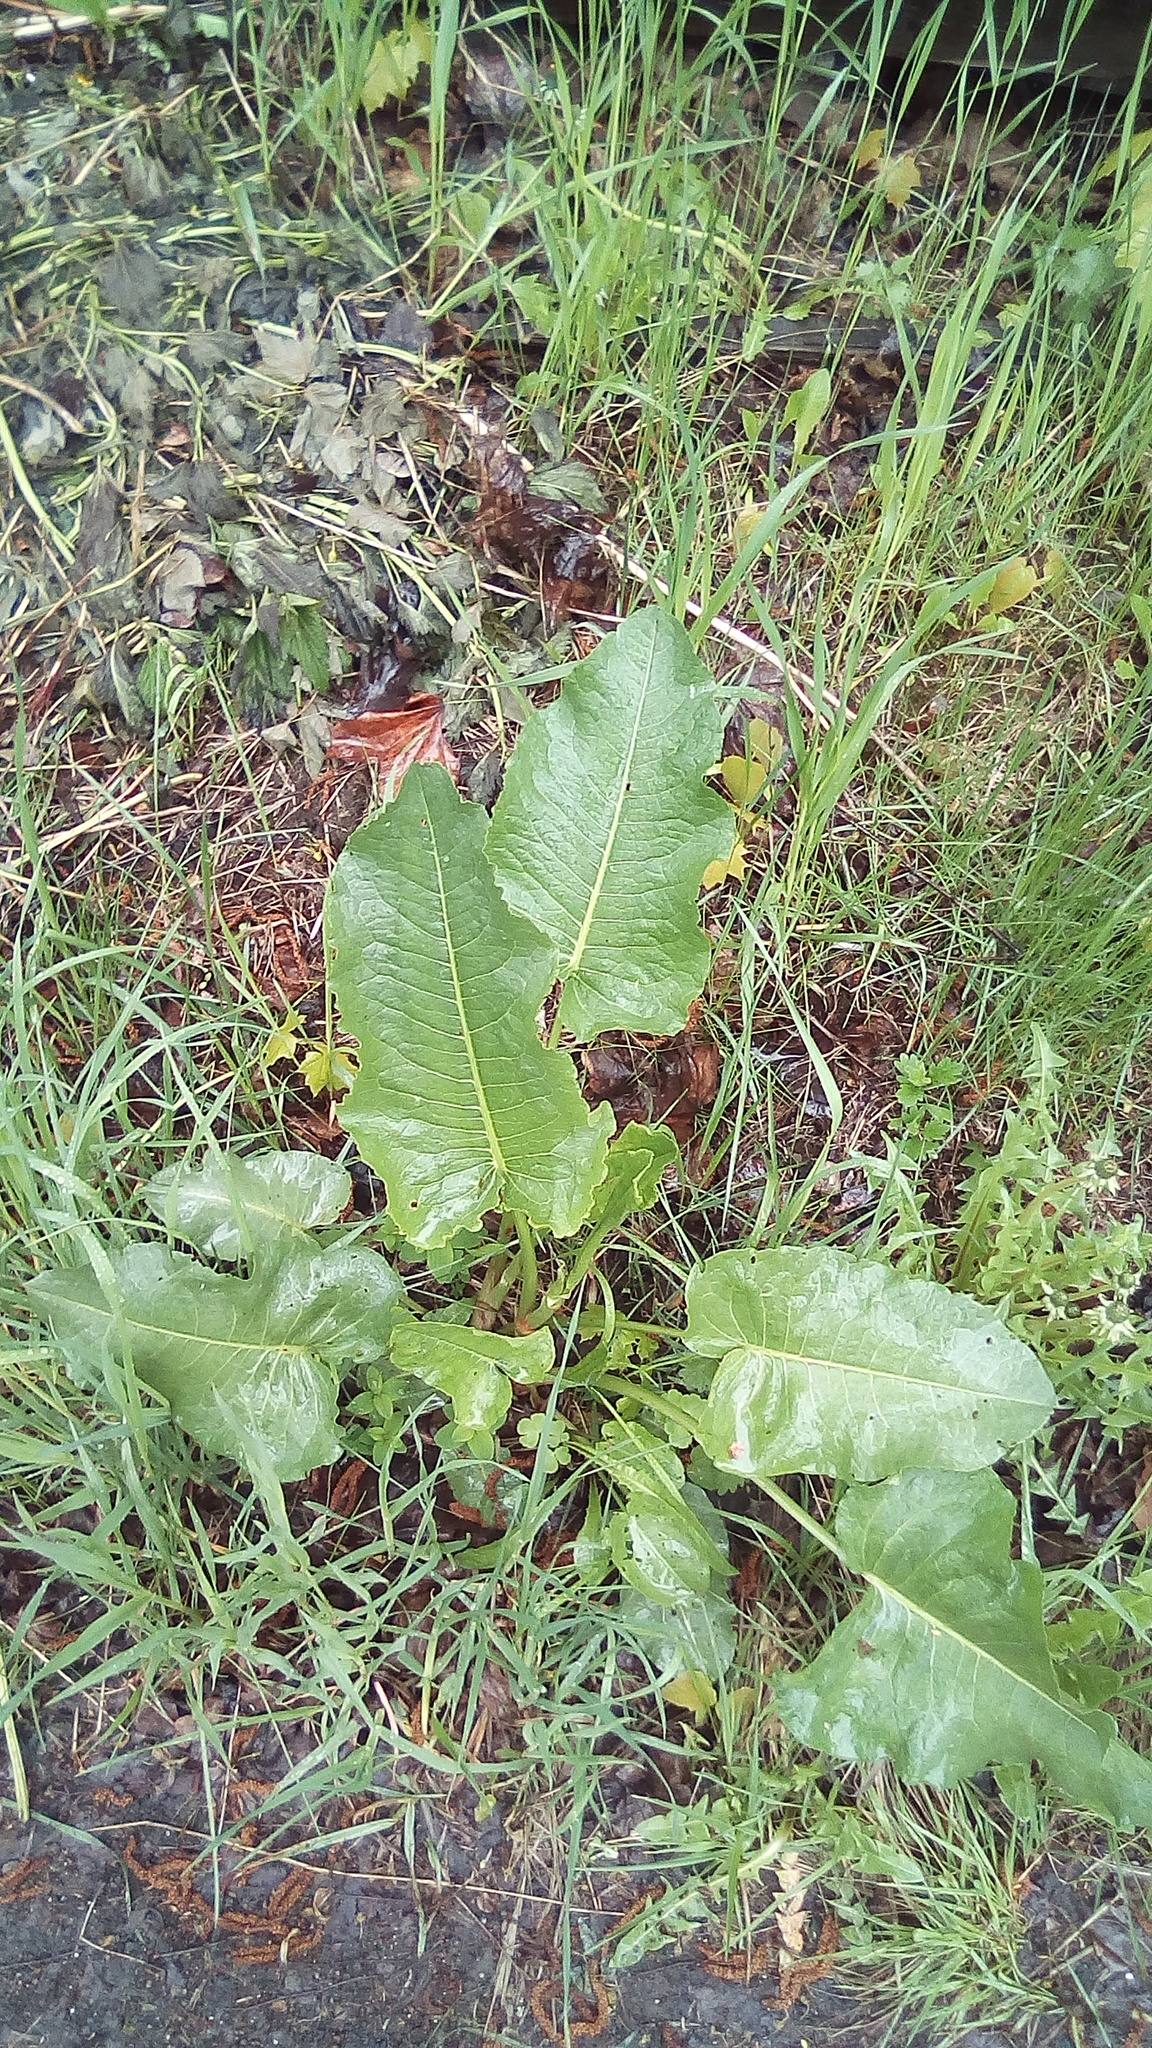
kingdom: Plantae
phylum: Tracheophyta
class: Magnoliopsida
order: Caryophyllales
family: Polygonaceae
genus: Rumex
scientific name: Rumex confertus
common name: Russian dock
